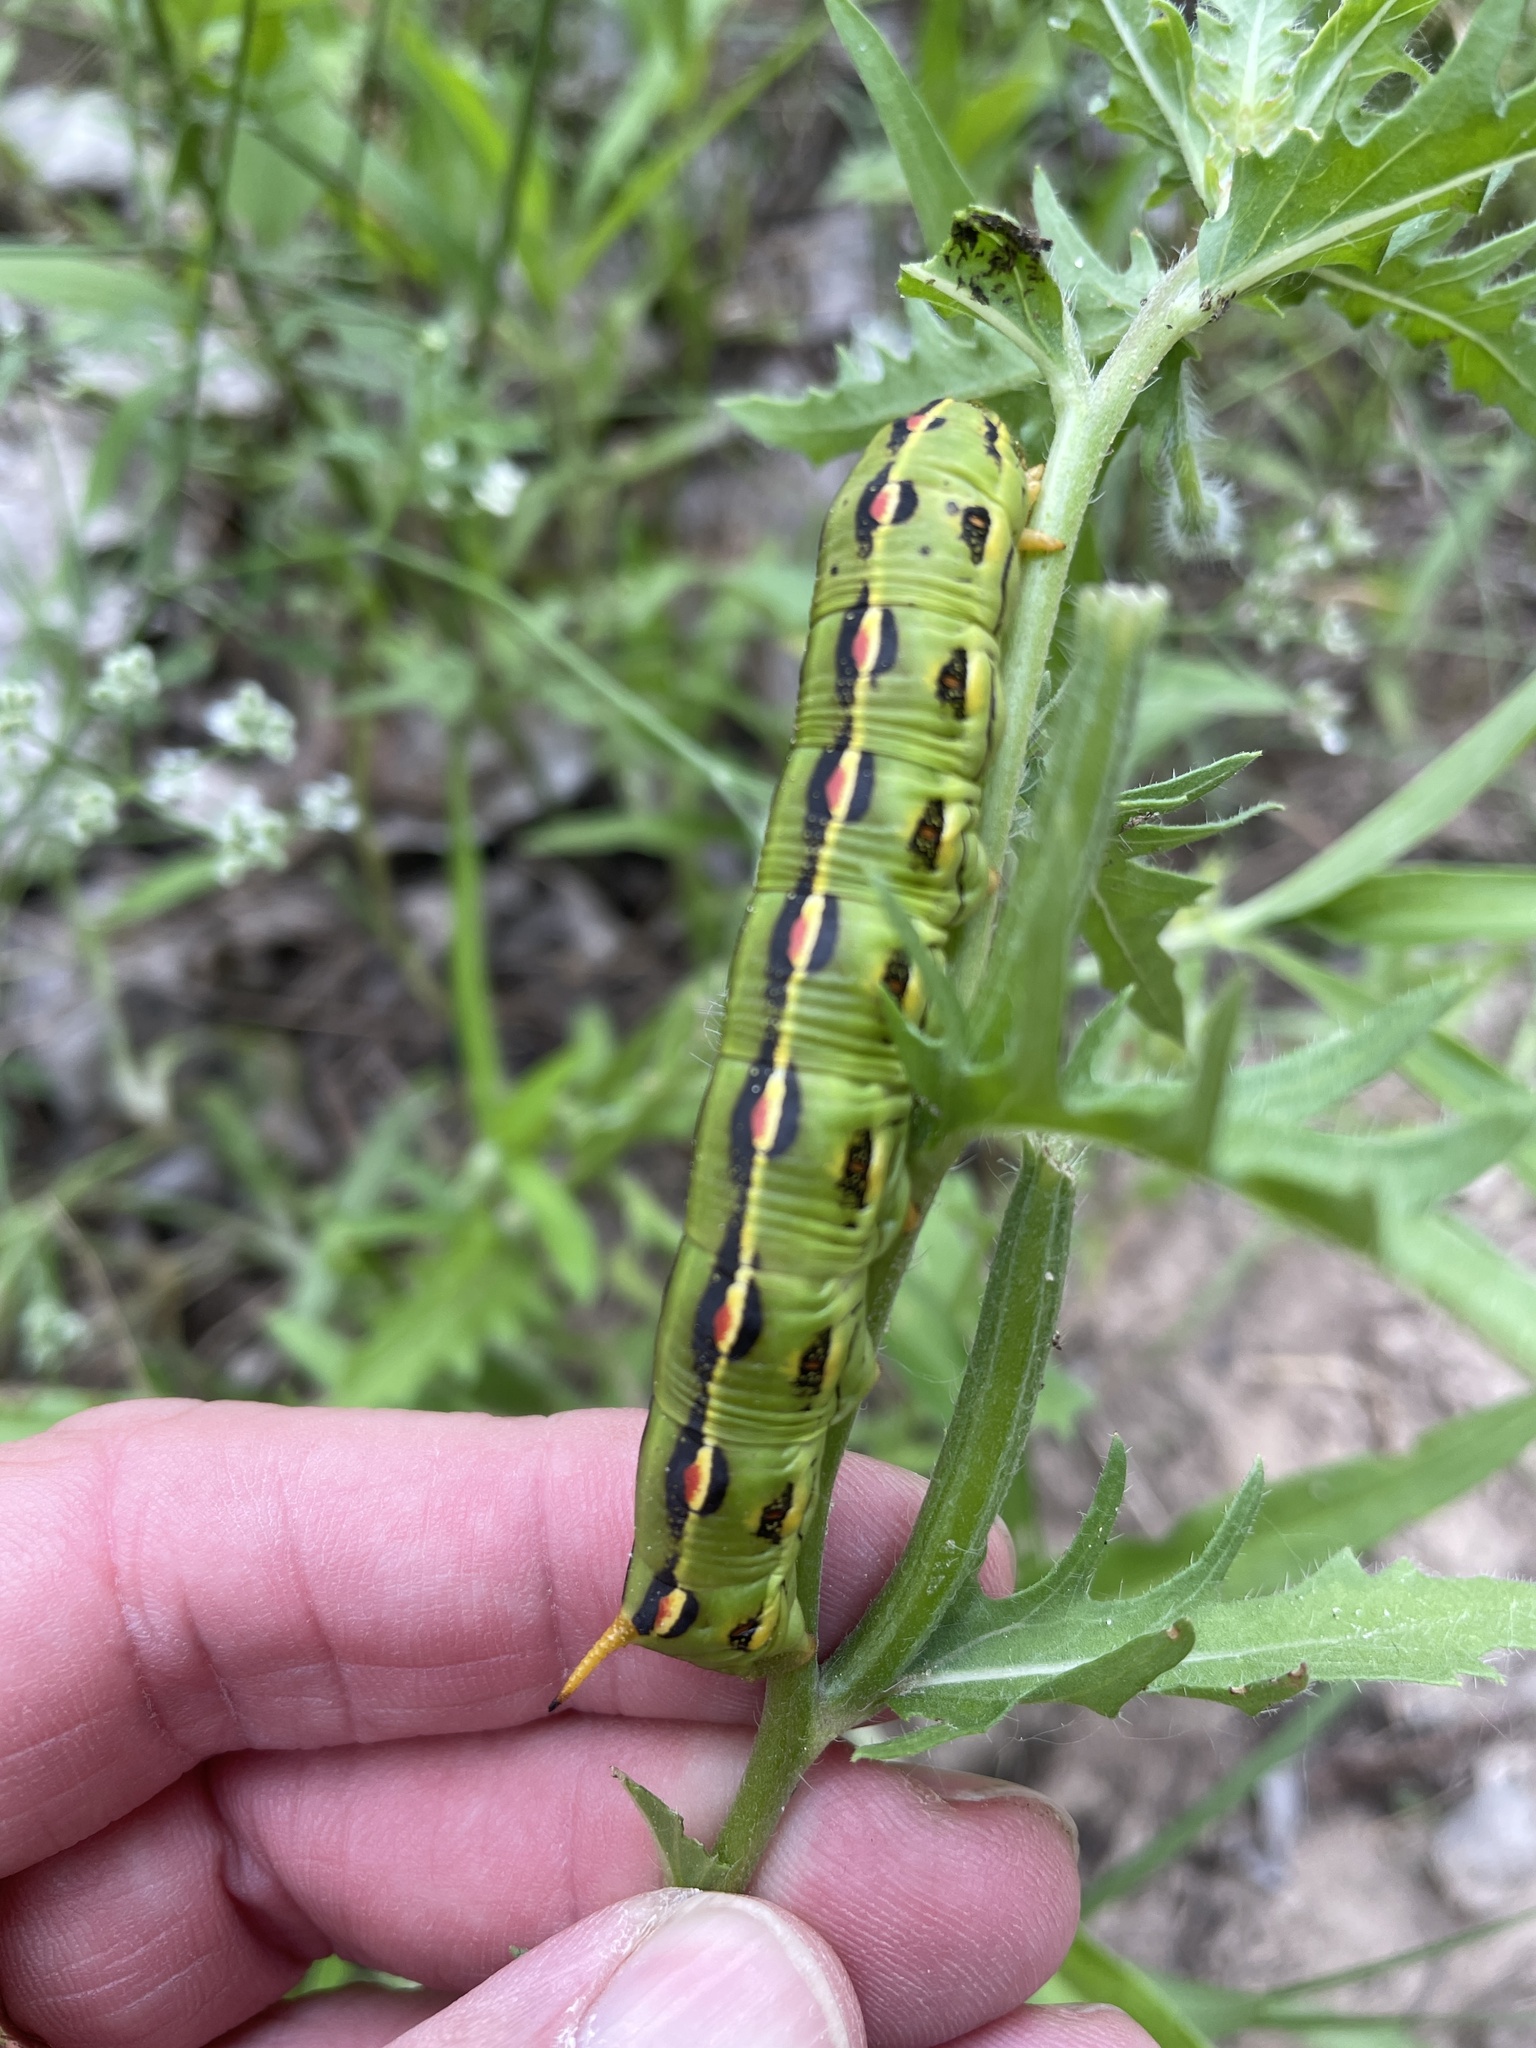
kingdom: Animalia
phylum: Arthropoda
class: Insecta
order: Lepidoptera
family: Sphingidae
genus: Hyles
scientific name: Hyles lineata
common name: White-lined sphinx
